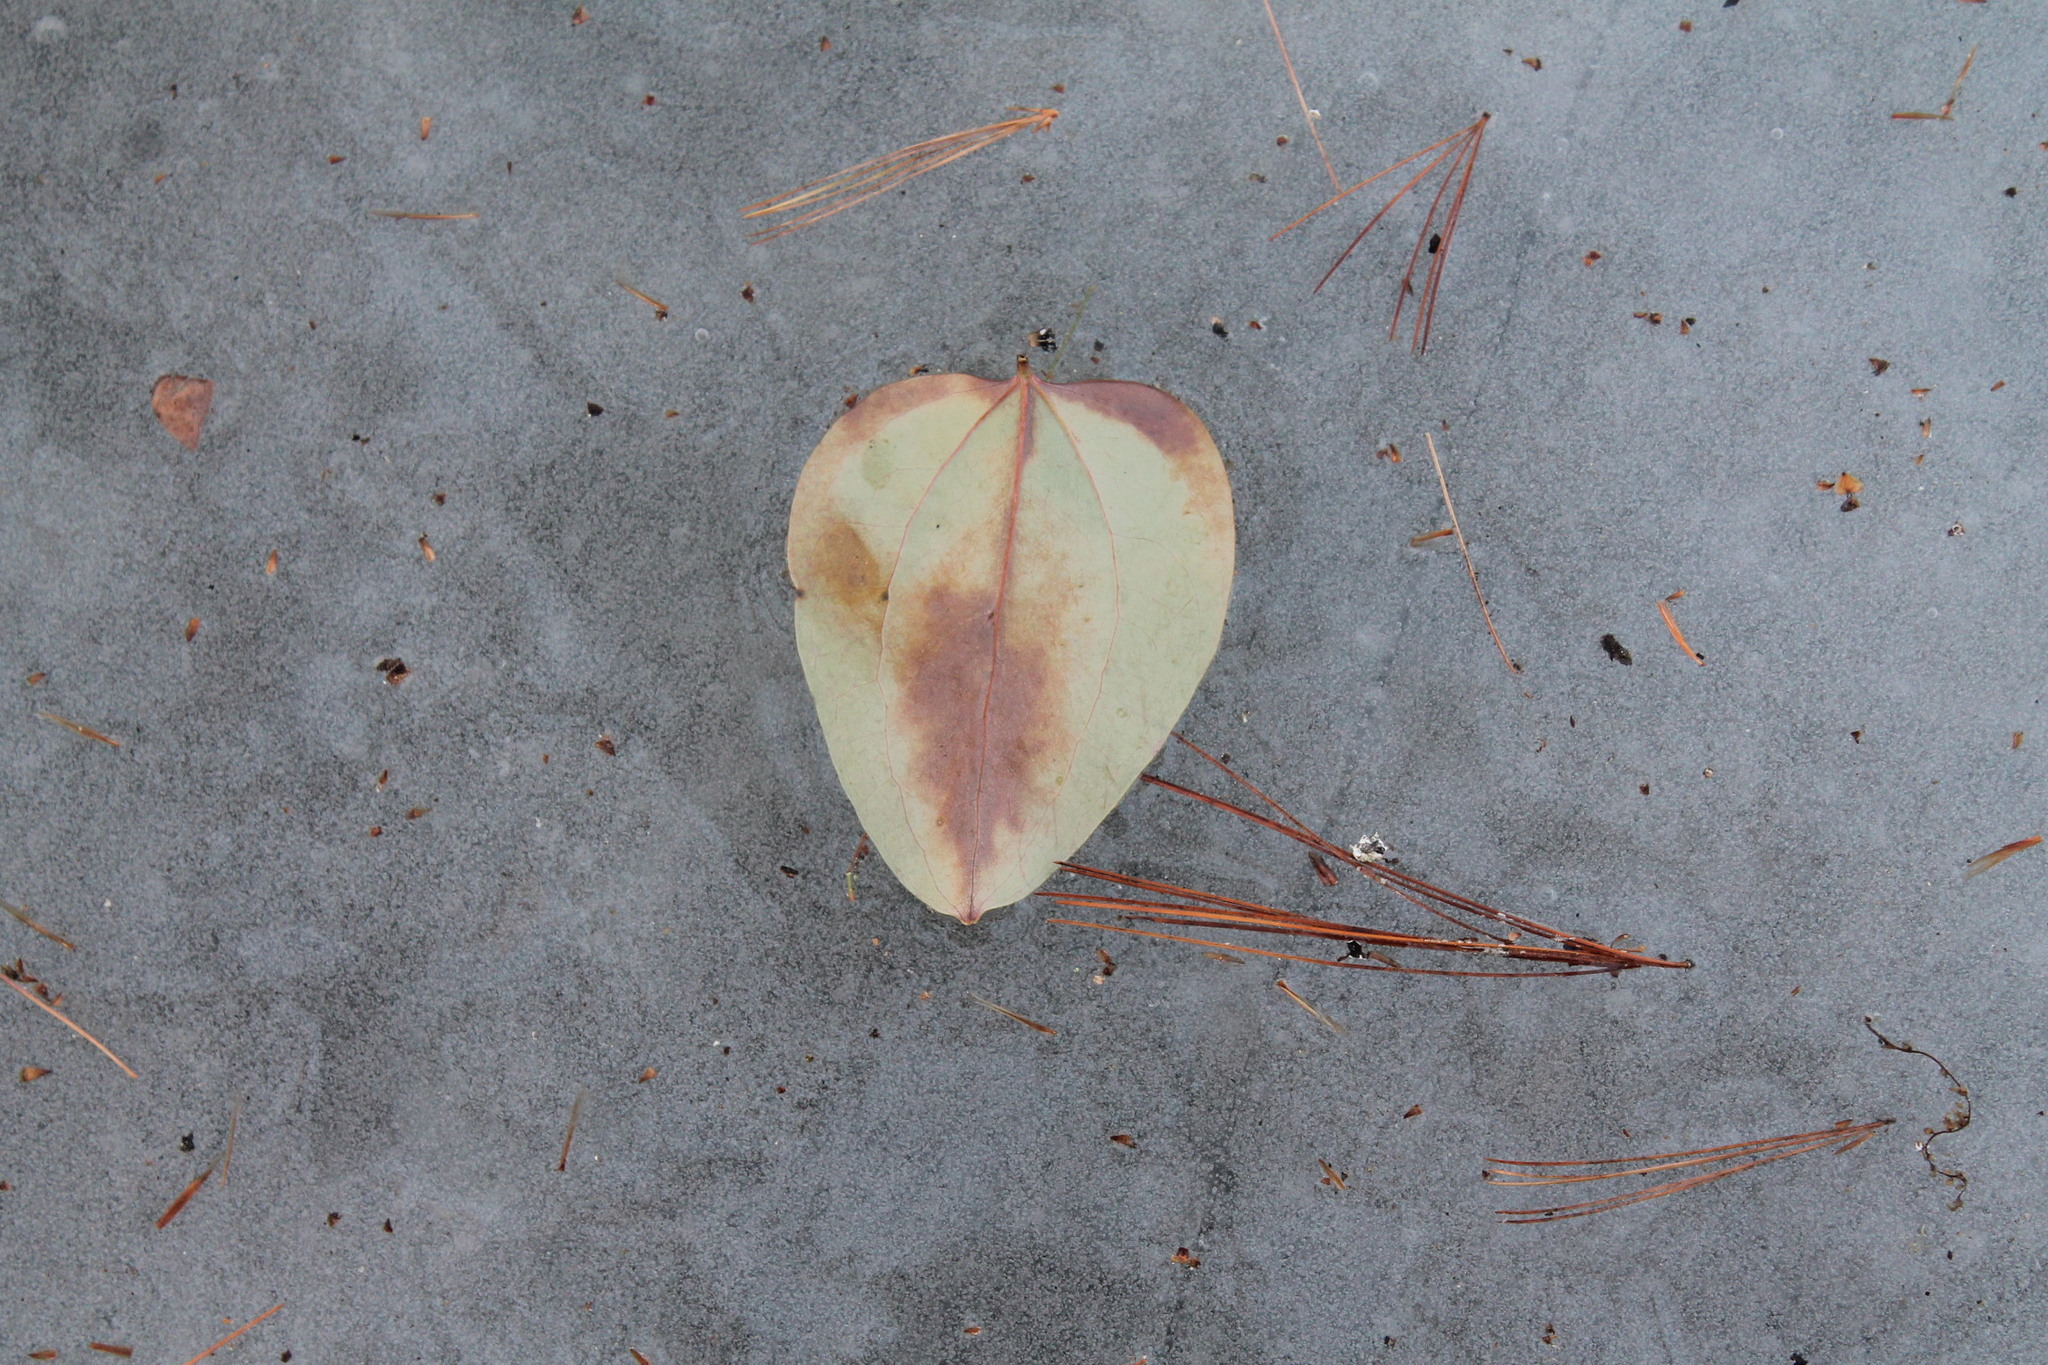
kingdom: Plantae
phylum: Tracheophyta
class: Liliopsida
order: Liliales
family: Smilacaceae
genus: Smilax
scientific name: Smilax glauca
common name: Cat greenbrier
